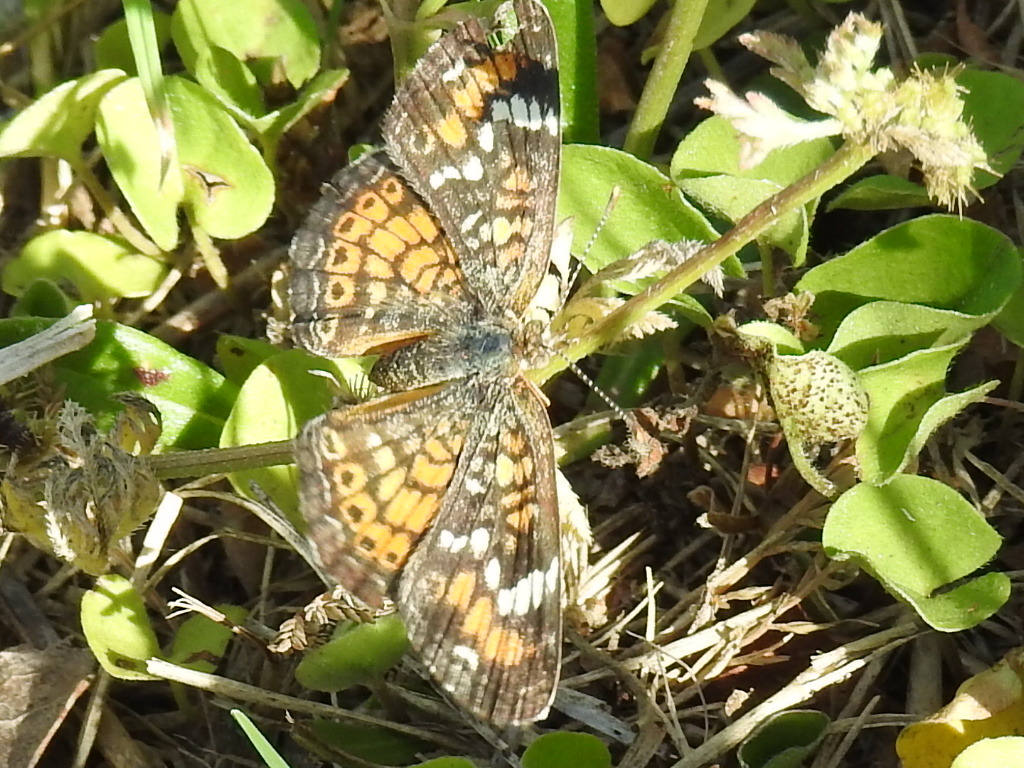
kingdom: Animalia
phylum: Arthropoda
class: Insecta
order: Lepidoptera
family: Nymphalidae
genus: Phyciodes
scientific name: Phyciodes phaon
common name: Phaon crescent
